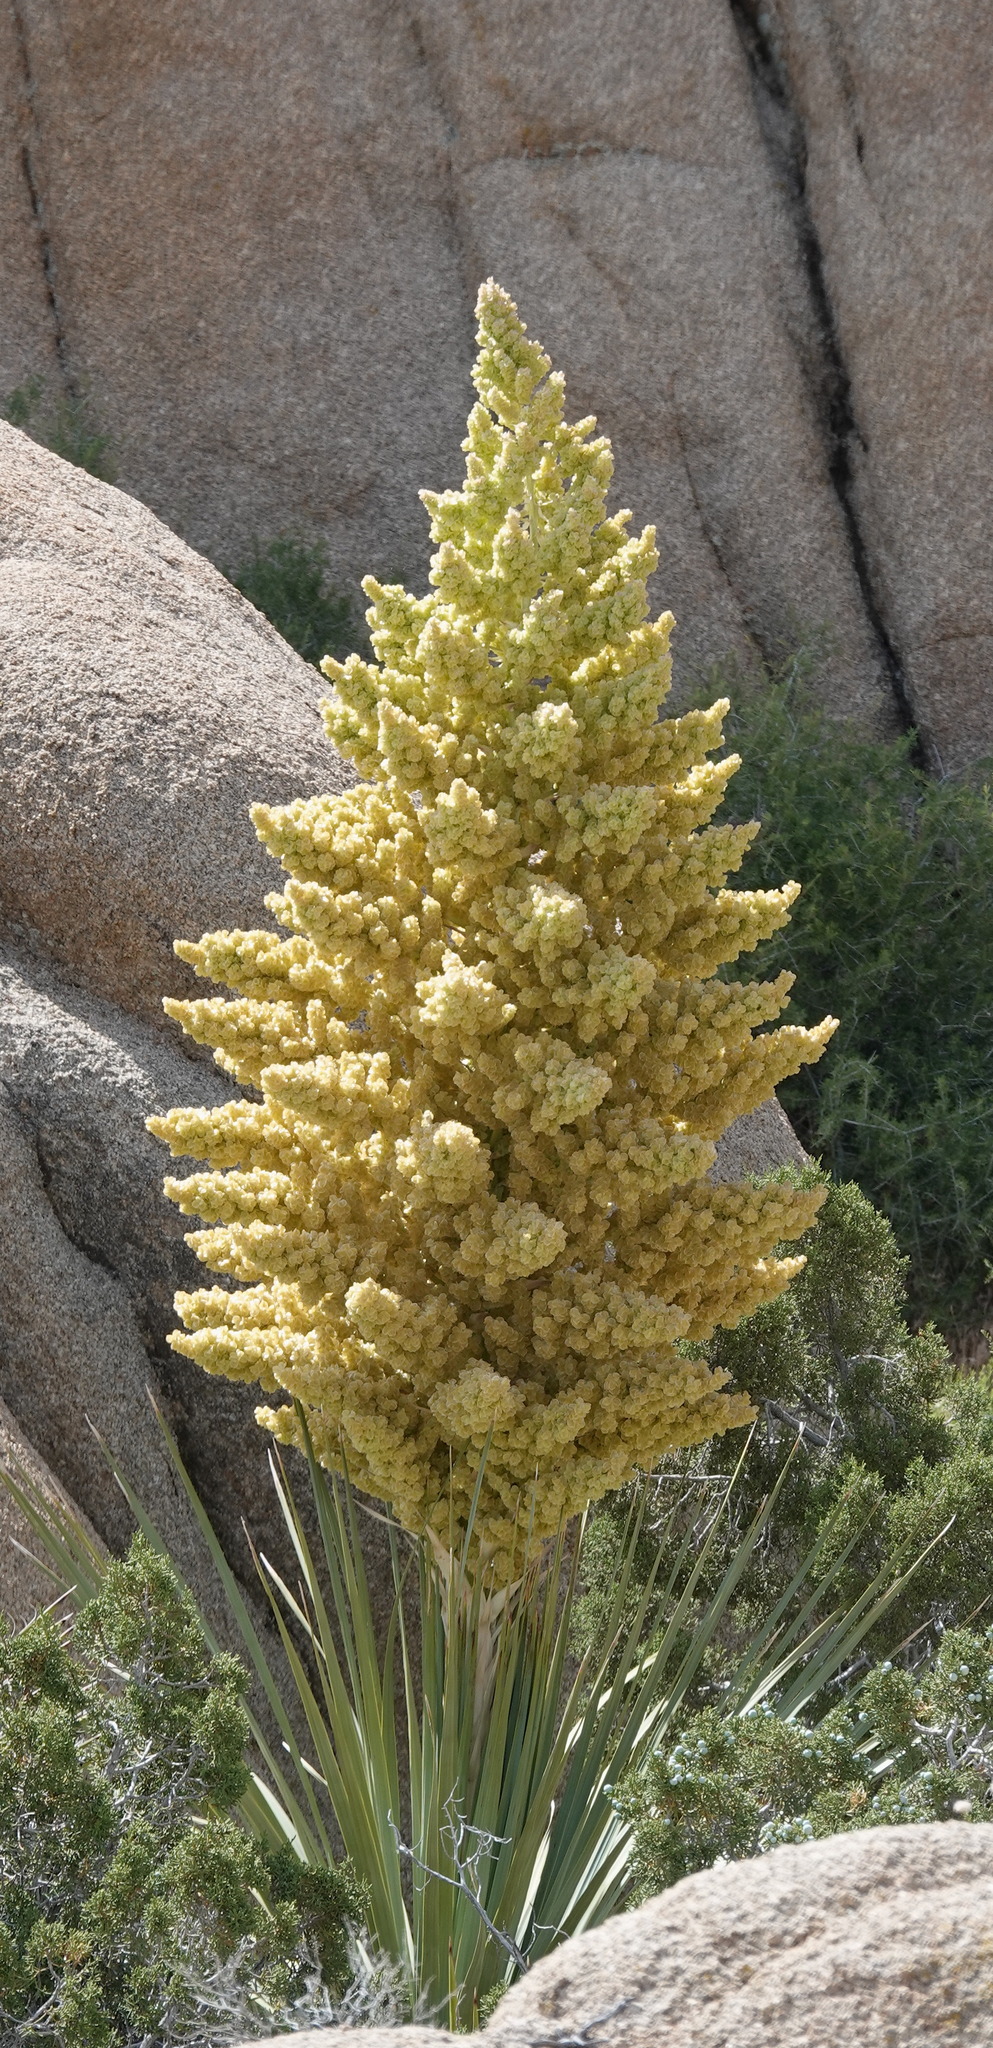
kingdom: Plantae
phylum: Tracheophyta
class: Liliopsida
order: Asparagales
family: Asparagaceae
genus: Nolina
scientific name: Nolina parryi
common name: Parry nolina
